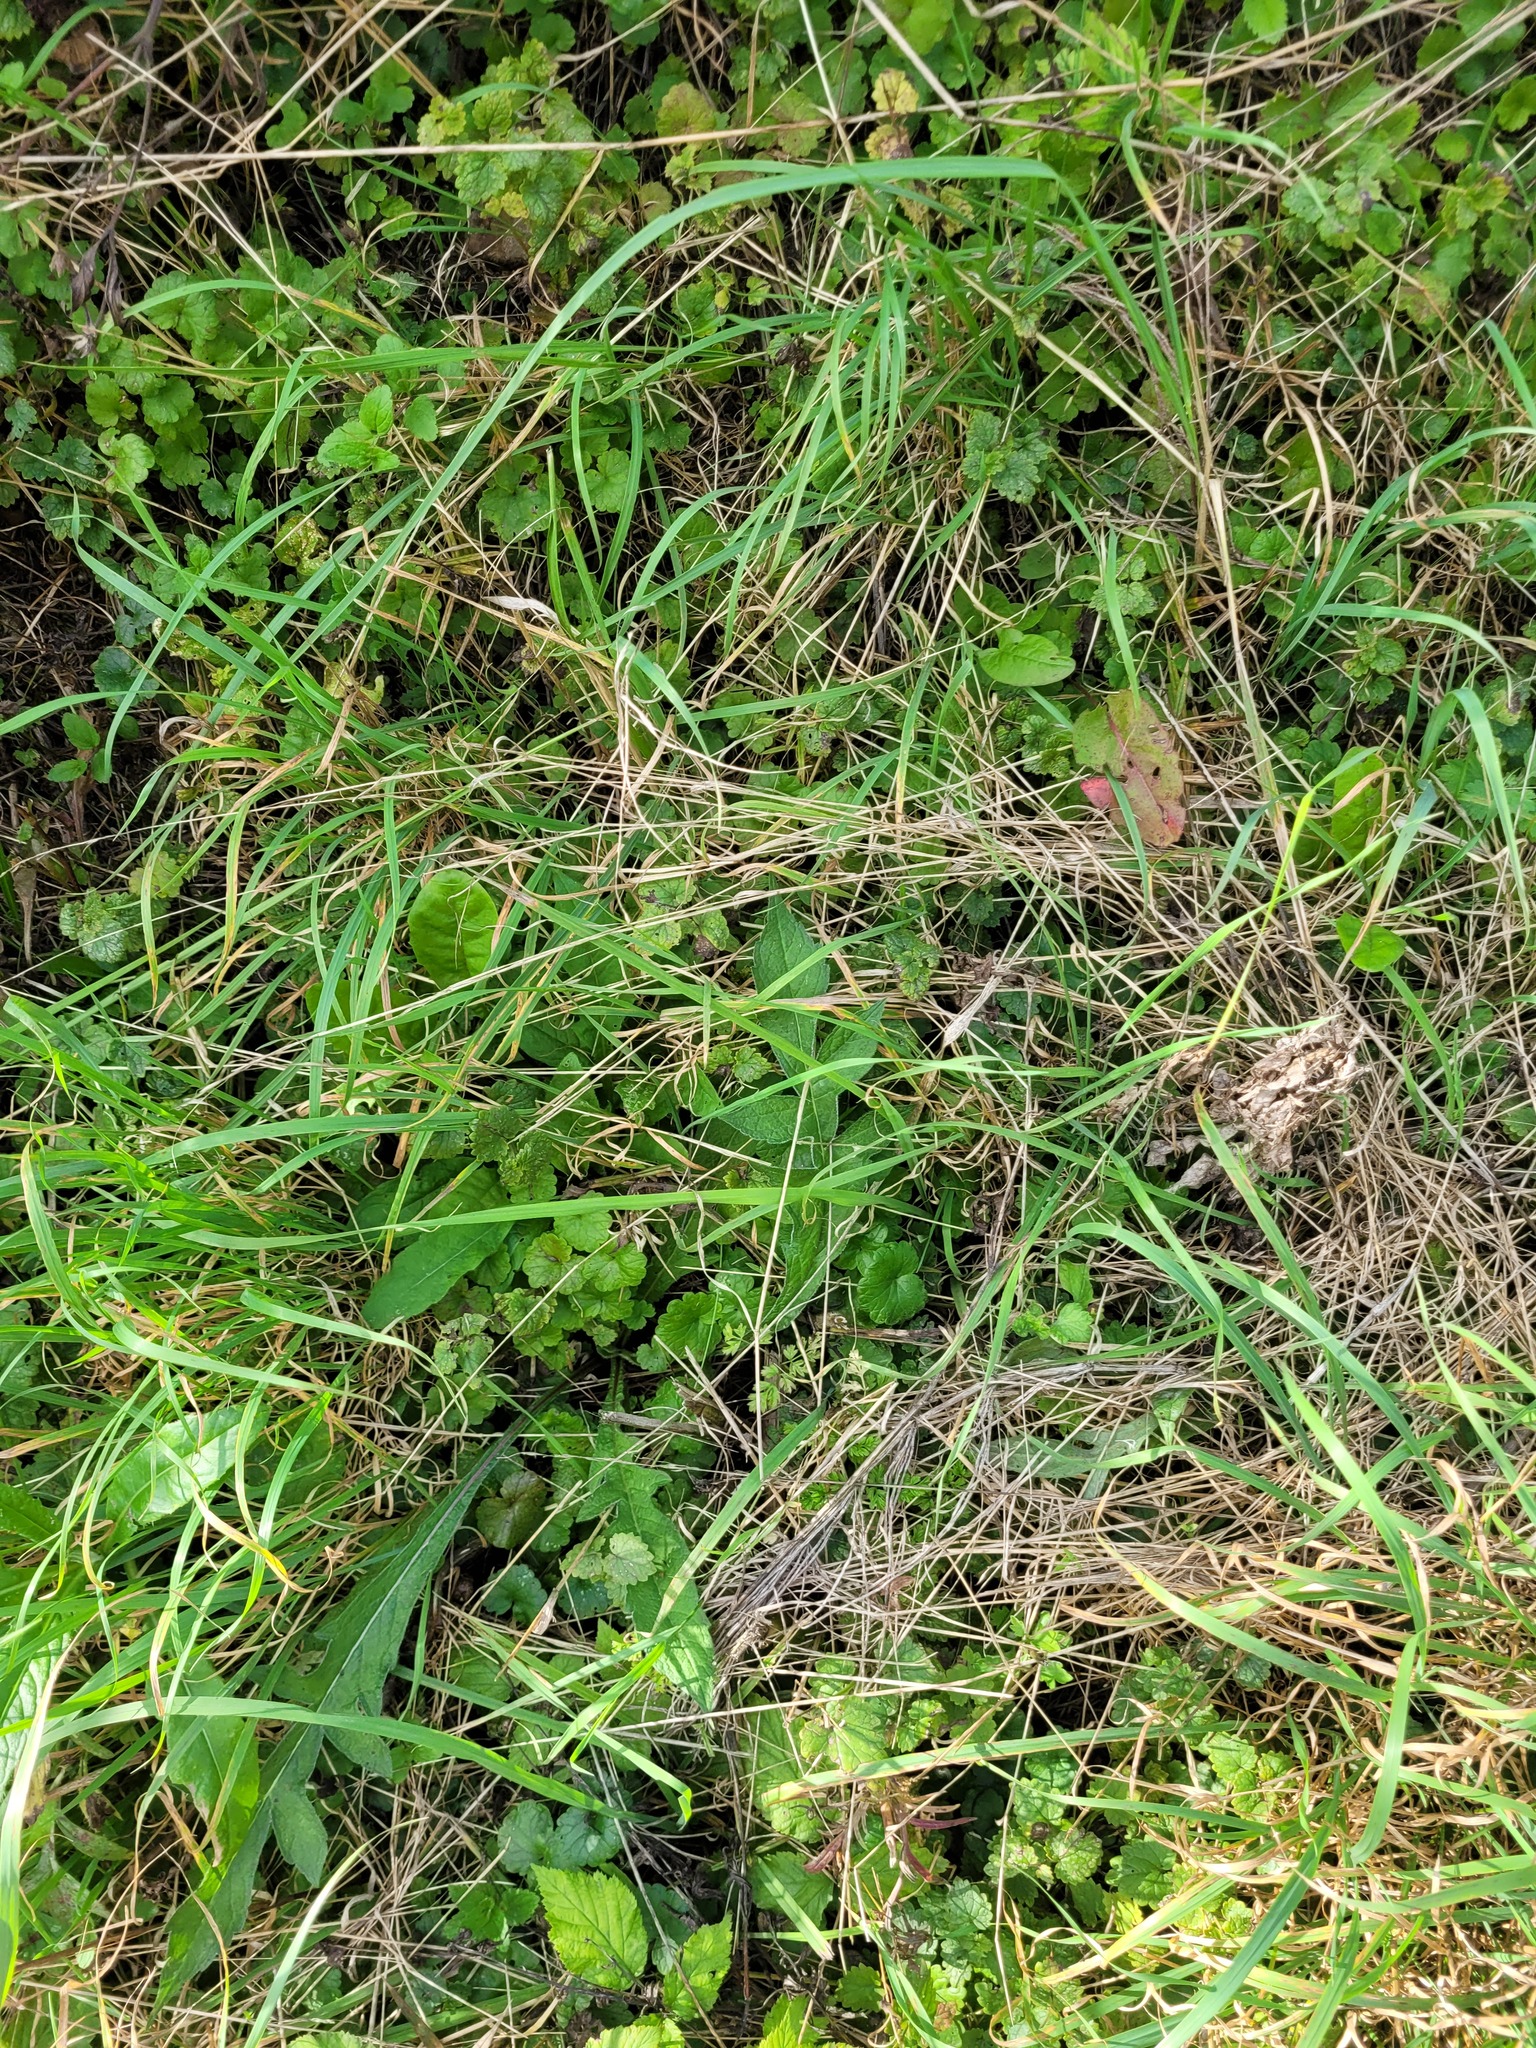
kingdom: Plantae
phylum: Tracheophyta
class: Magnoliopsida
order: Lamiales
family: Lamiaceae
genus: Glechoma
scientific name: Glechoma hederacea
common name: Ground ivy
